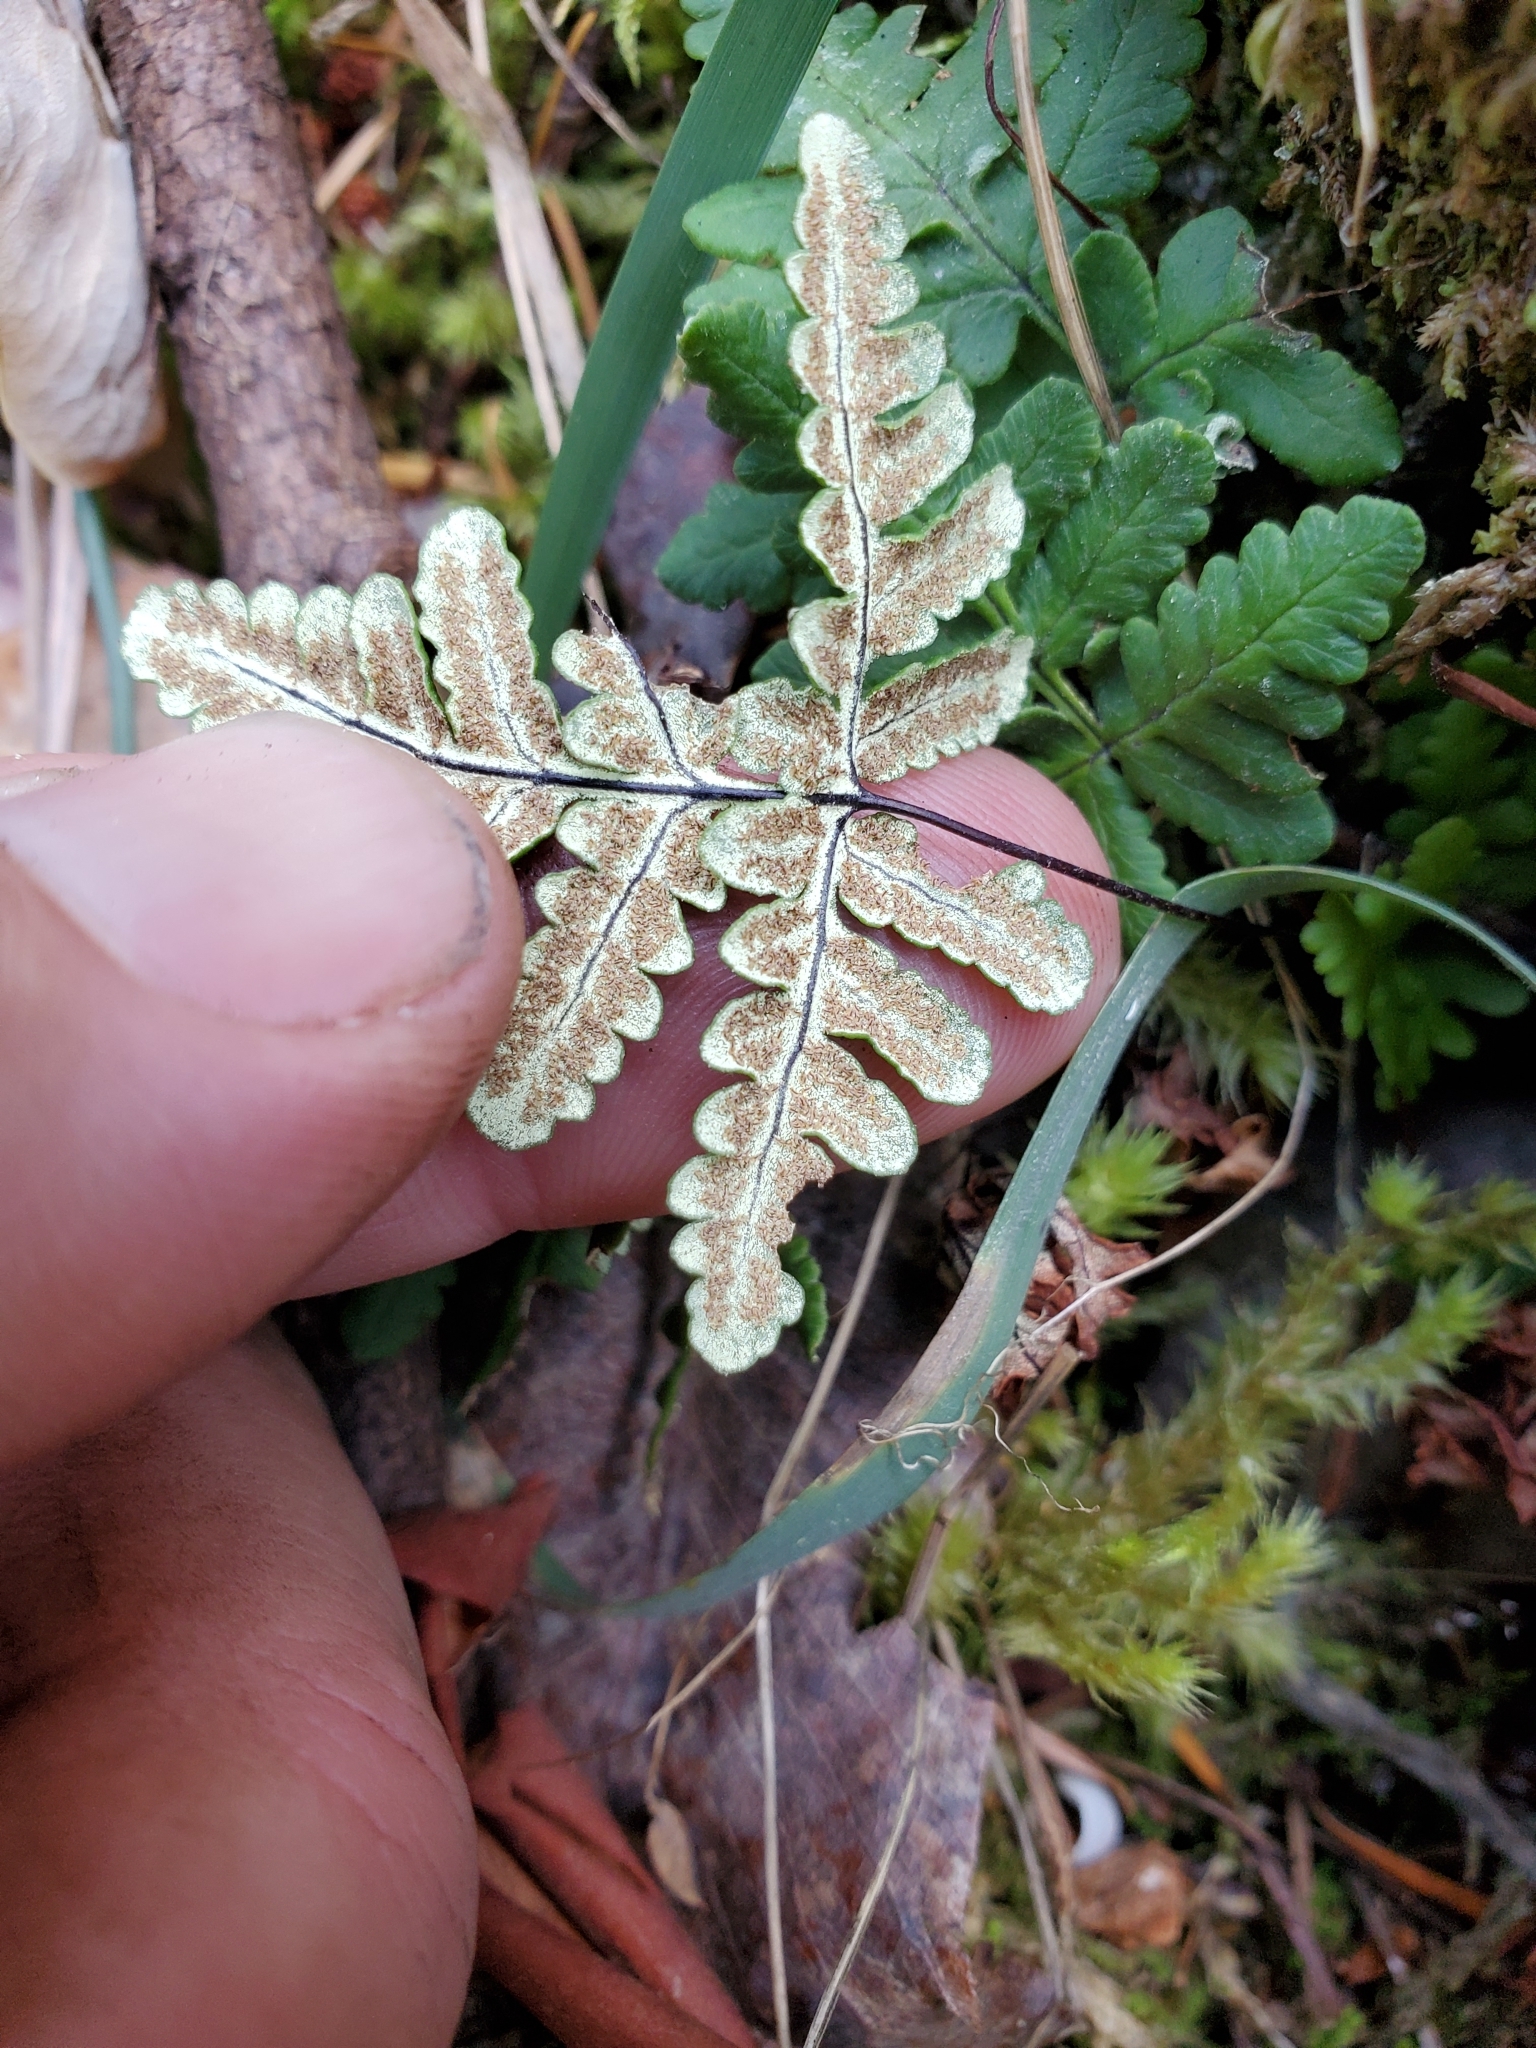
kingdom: Plantae
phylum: Tracheophyta
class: Polypodiopsida
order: Polypodiales
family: Pteridaceae
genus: Pentagramma
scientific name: Pentagramma triangularis
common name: Gold fern
